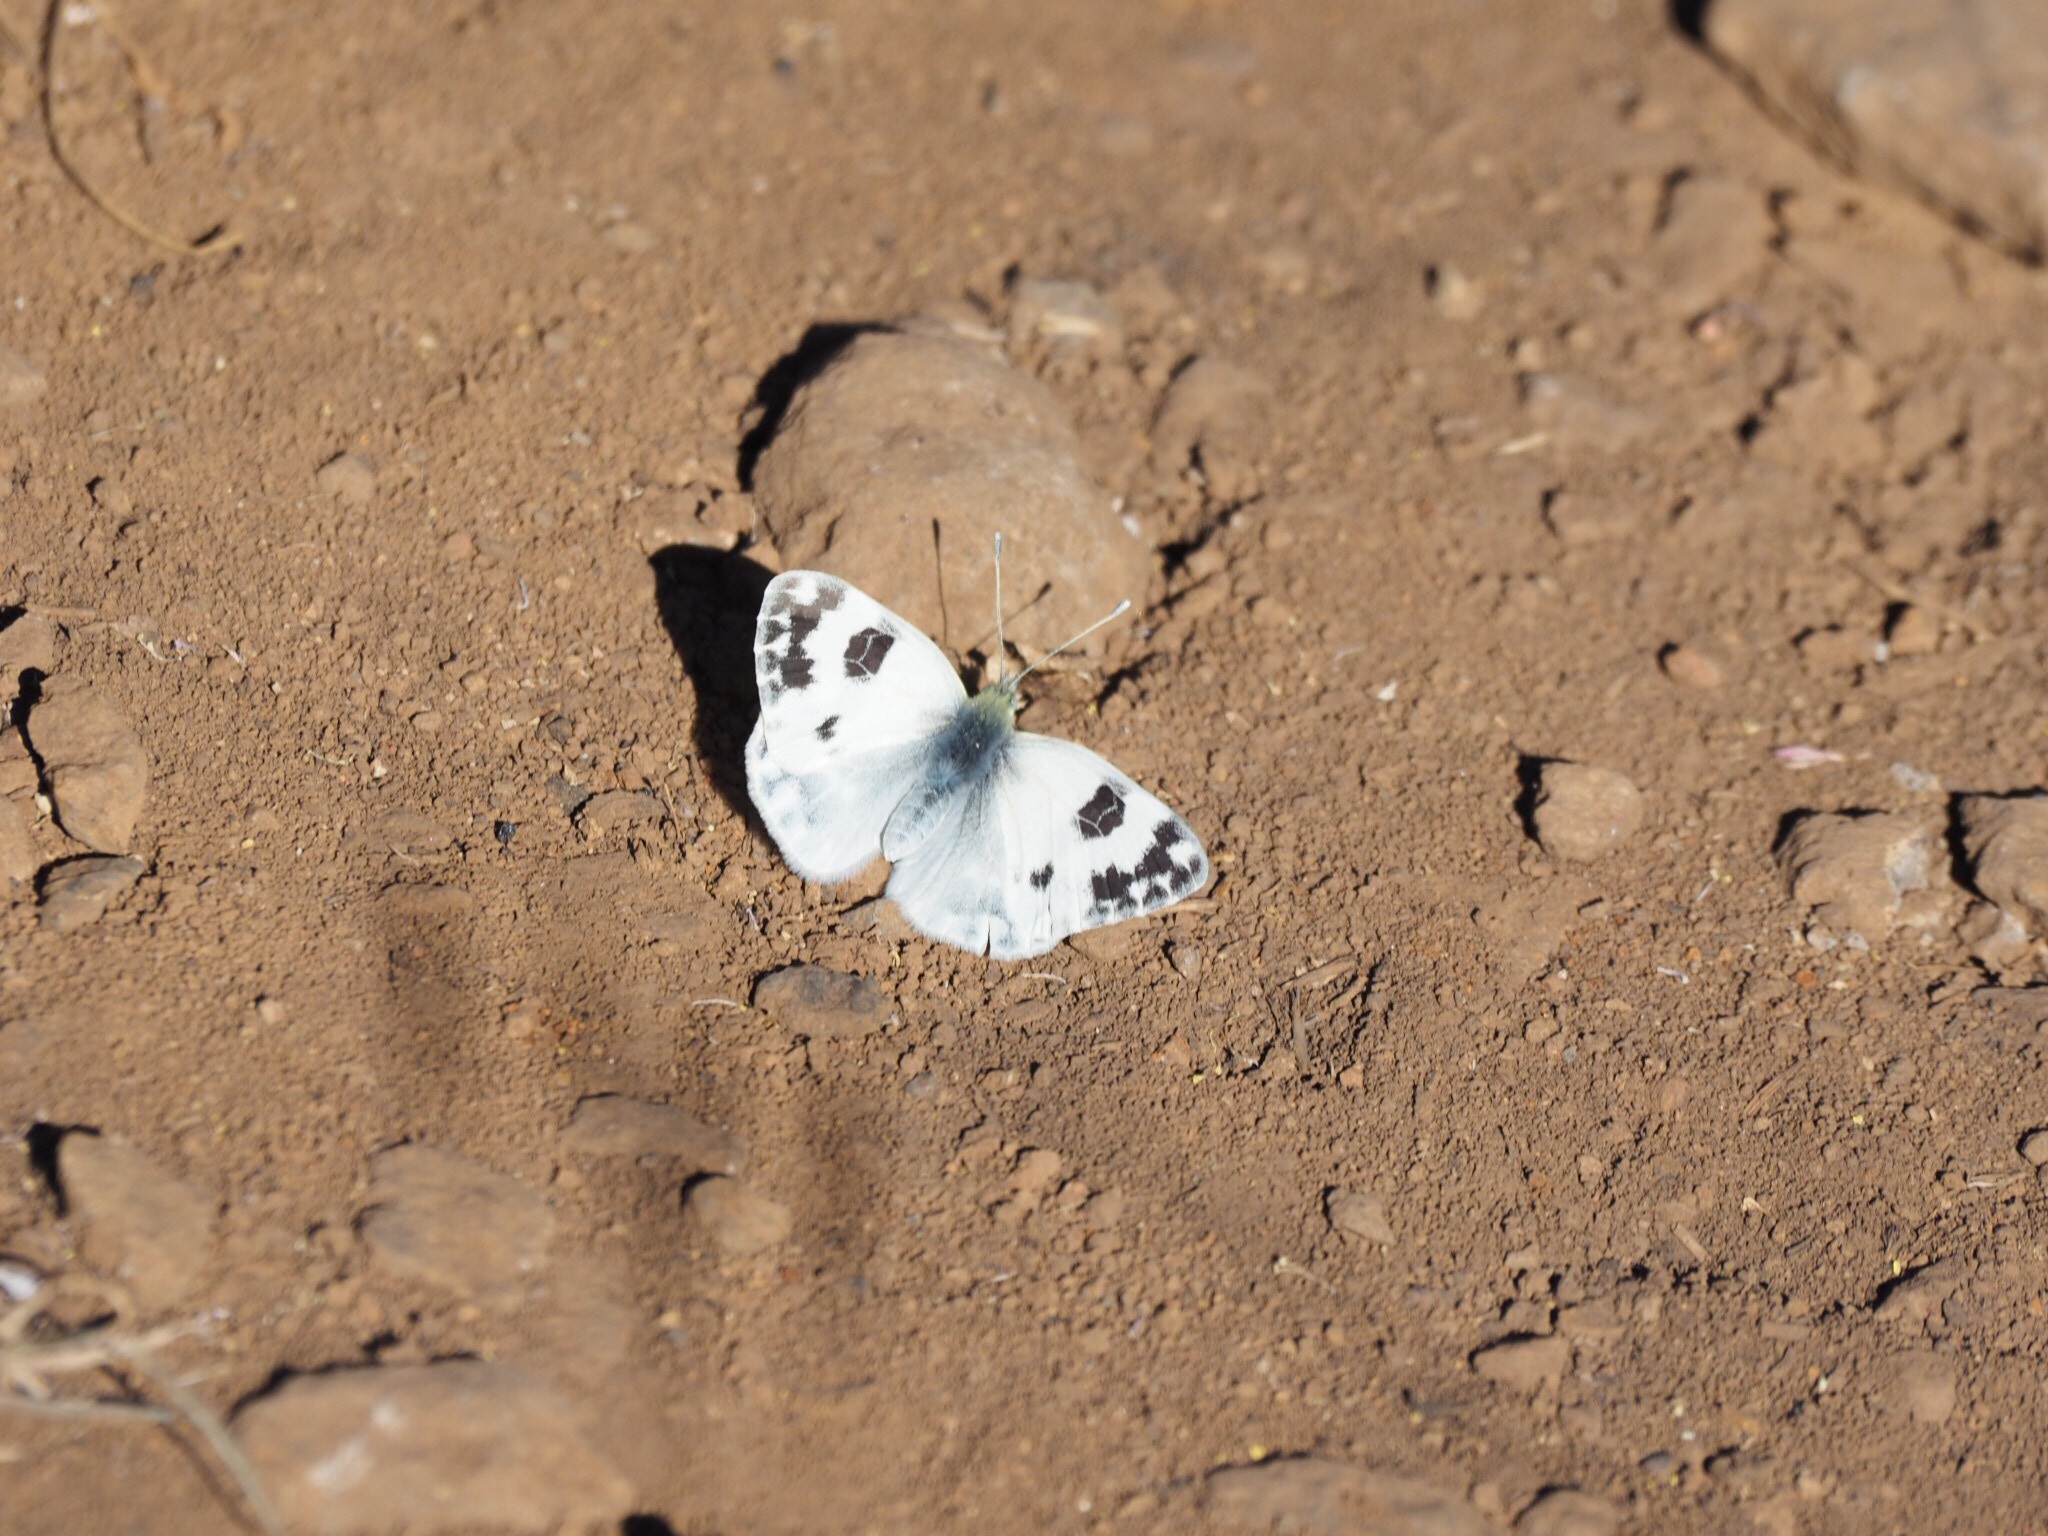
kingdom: Animalia
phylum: Arthropoda
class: Insecta
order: Lepidoptera
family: Pieridae
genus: Pontia
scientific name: Pontia daplidice
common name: Bath white
